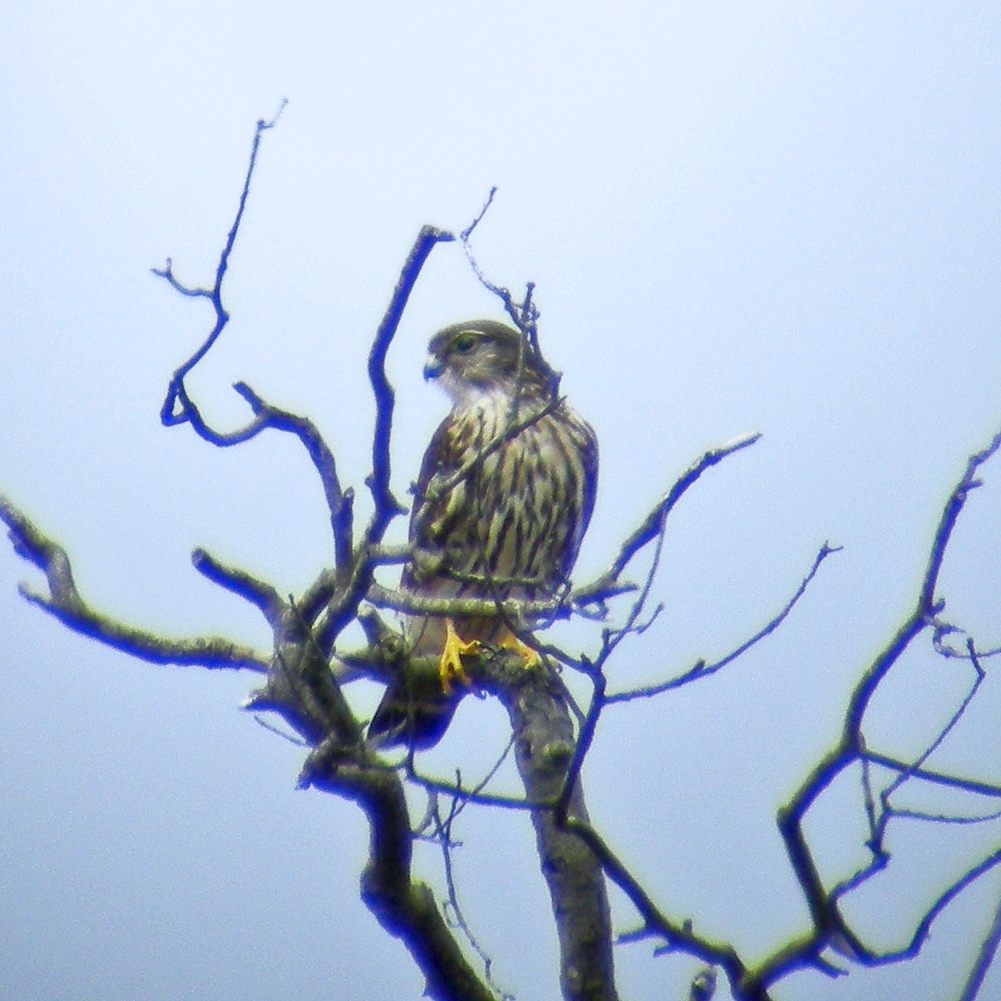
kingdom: Animalia
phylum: Chordata
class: Aves
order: Falconiformes
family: Falconidae
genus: Falco
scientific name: Falco columbarius
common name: Merlin
